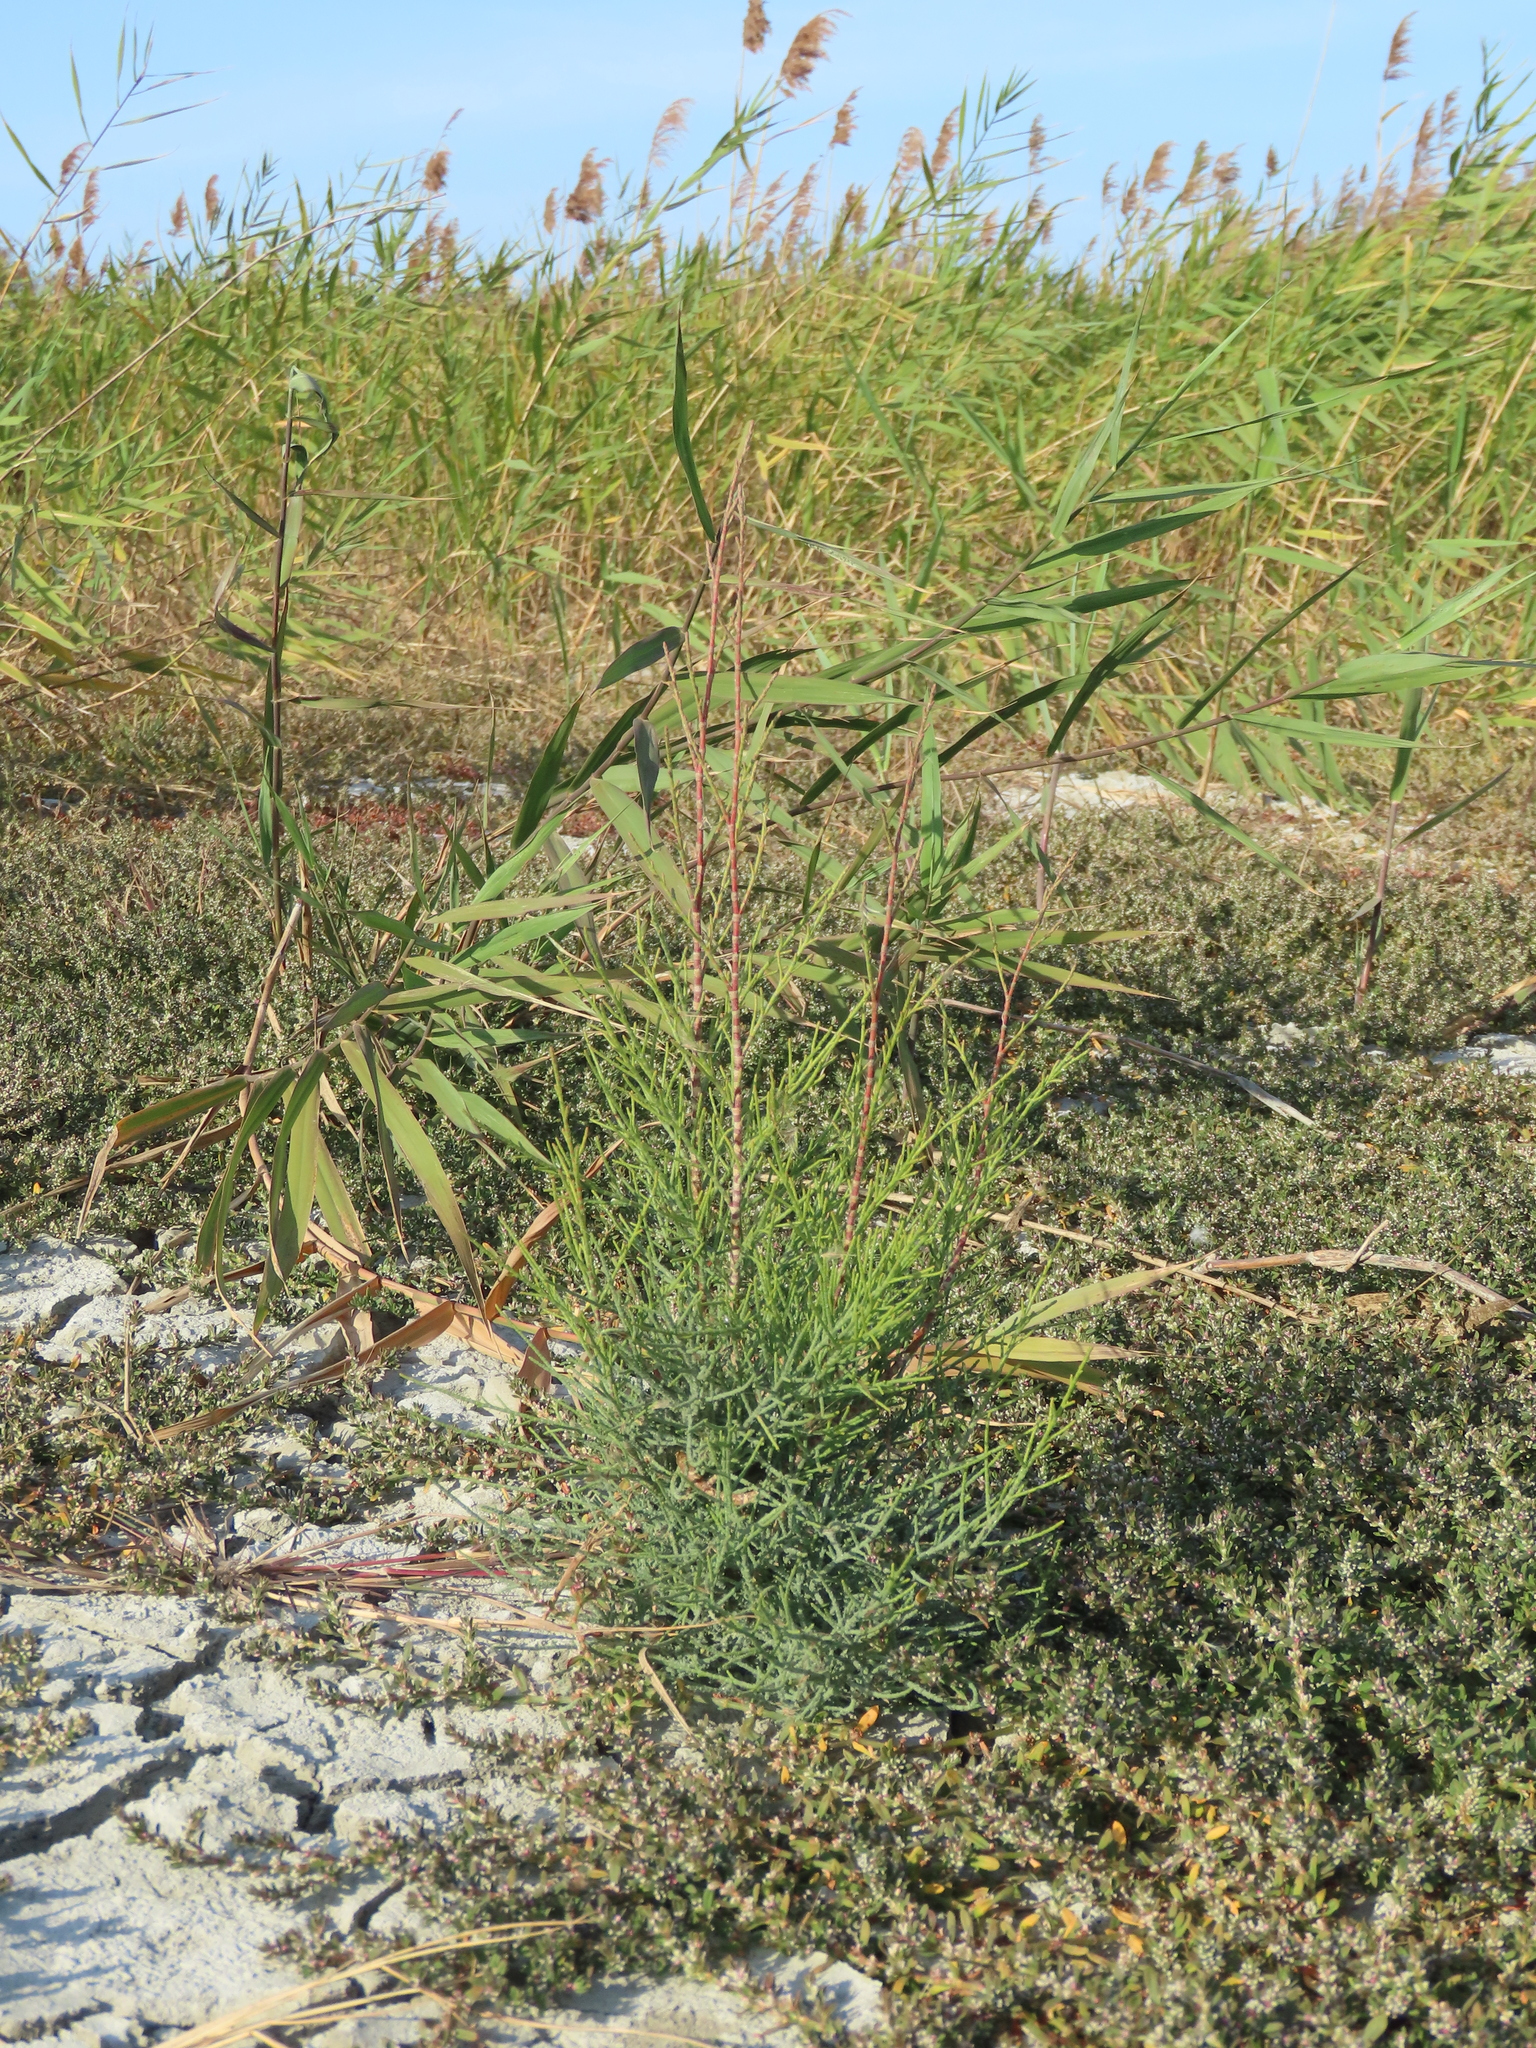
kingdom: Plantae
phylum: Tracheophyta
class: Magnoliopsida
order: Caryophyllales
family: Tamaricaceae
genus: Tamarix
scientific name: Tamarix aphylla
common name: Athel tamarisk
